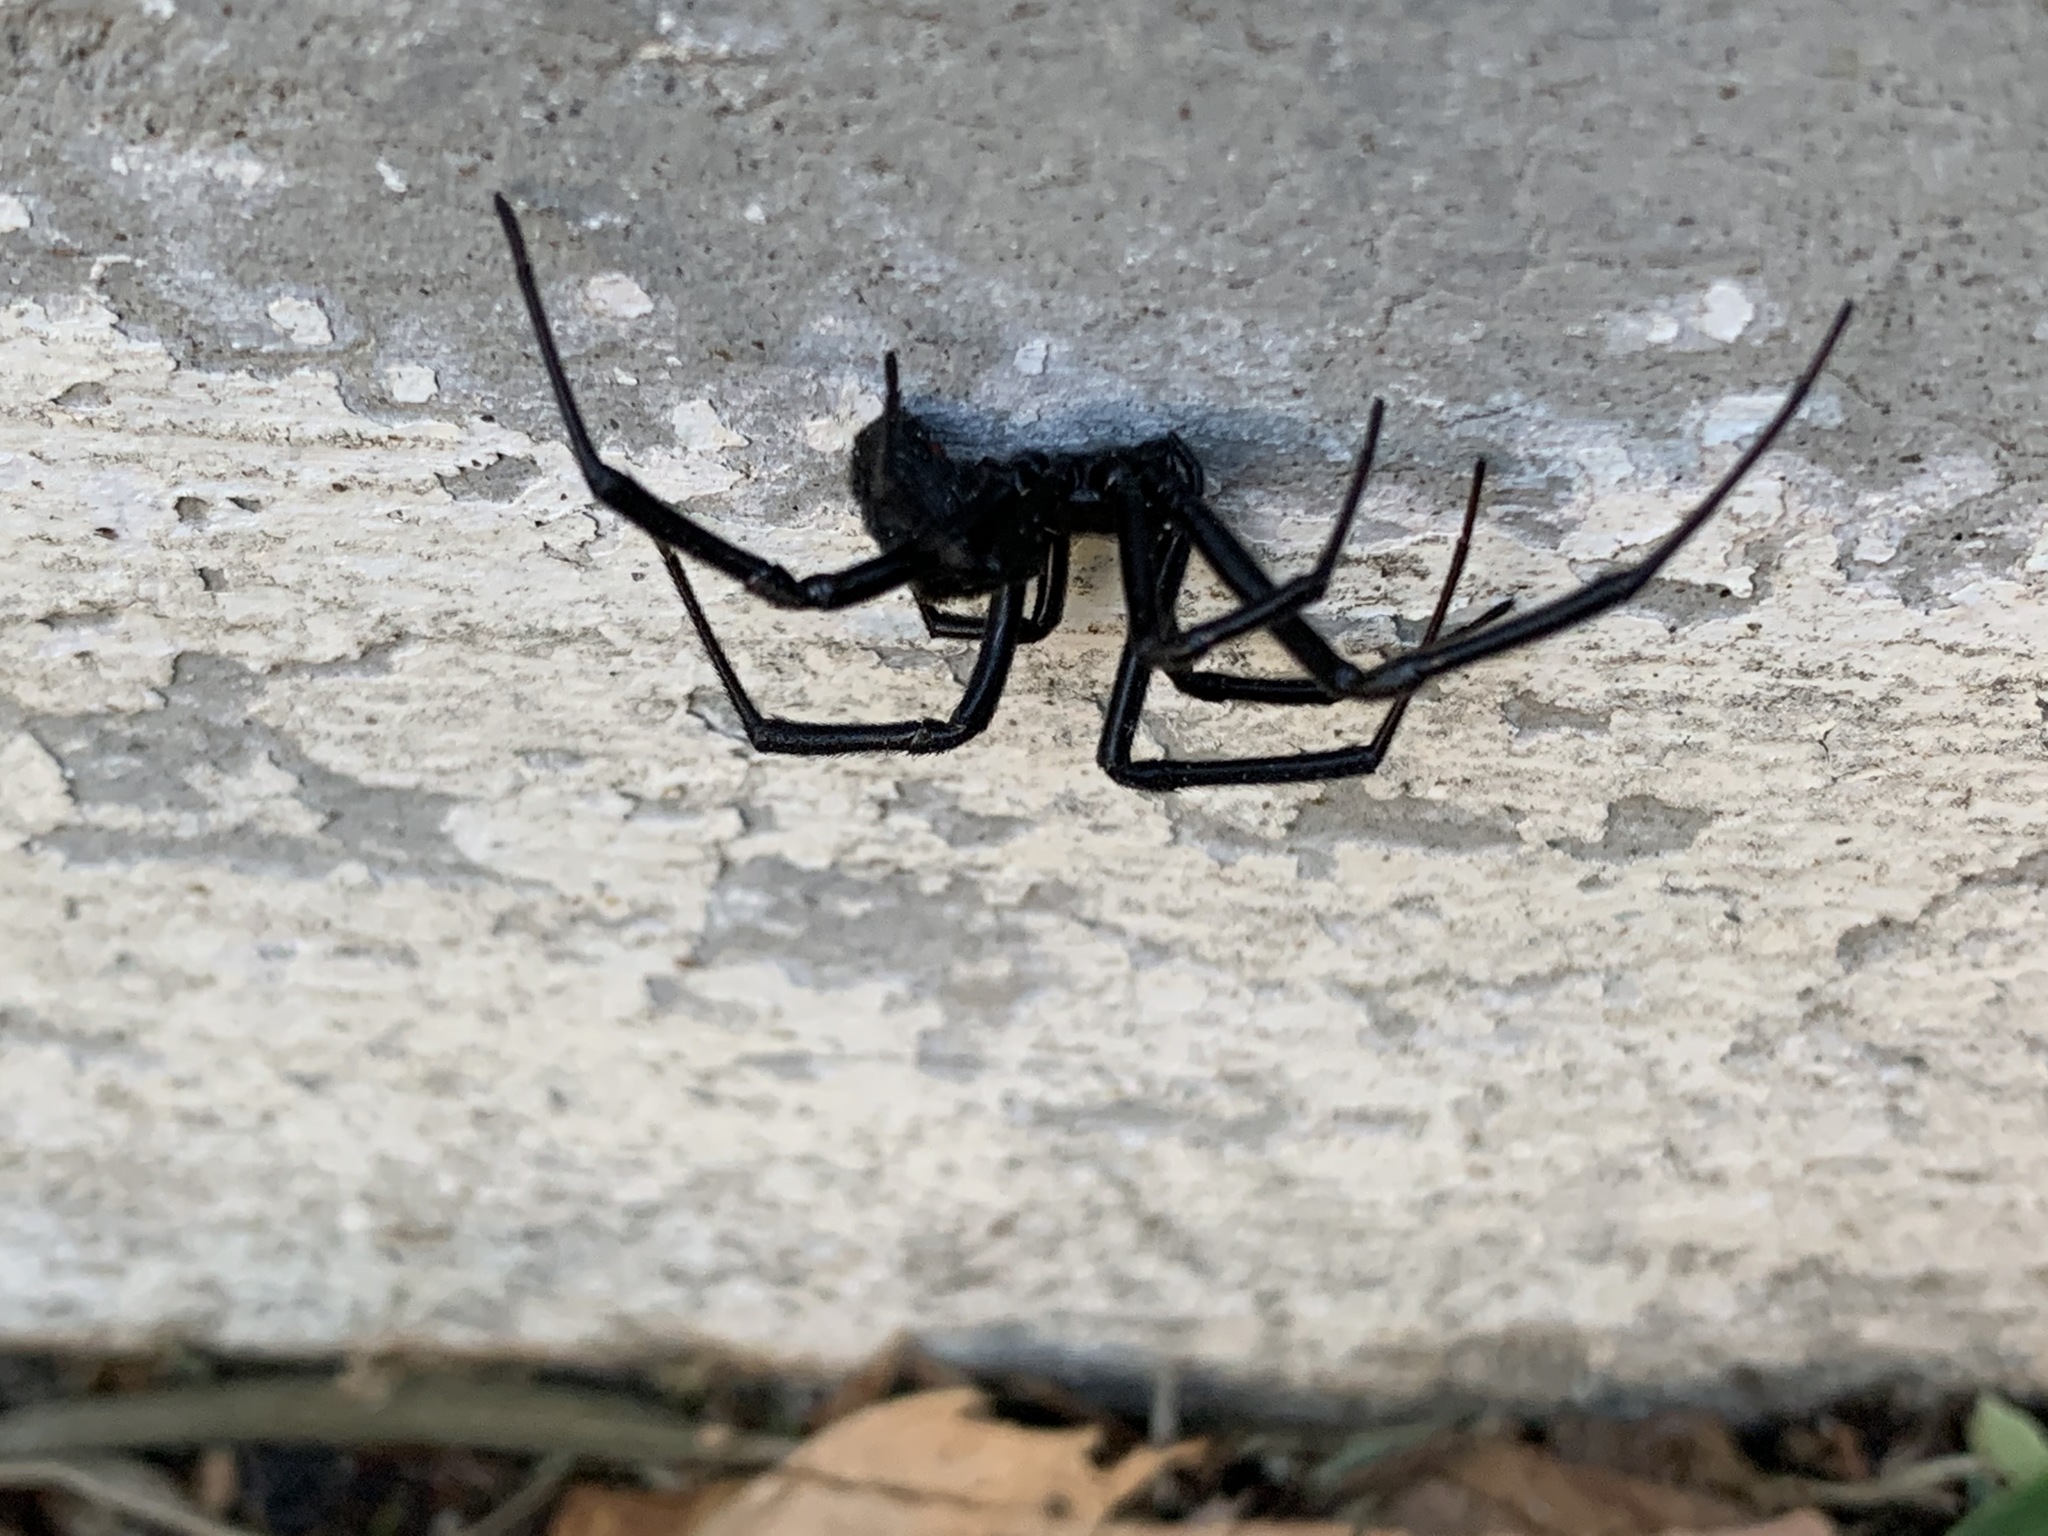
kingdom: Animalia
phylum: Arthropoda
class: Arachnida
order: Araneae
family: Theridiidae
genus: Latrodectus
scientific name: Latrodectus hesperus
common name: Western black widow
